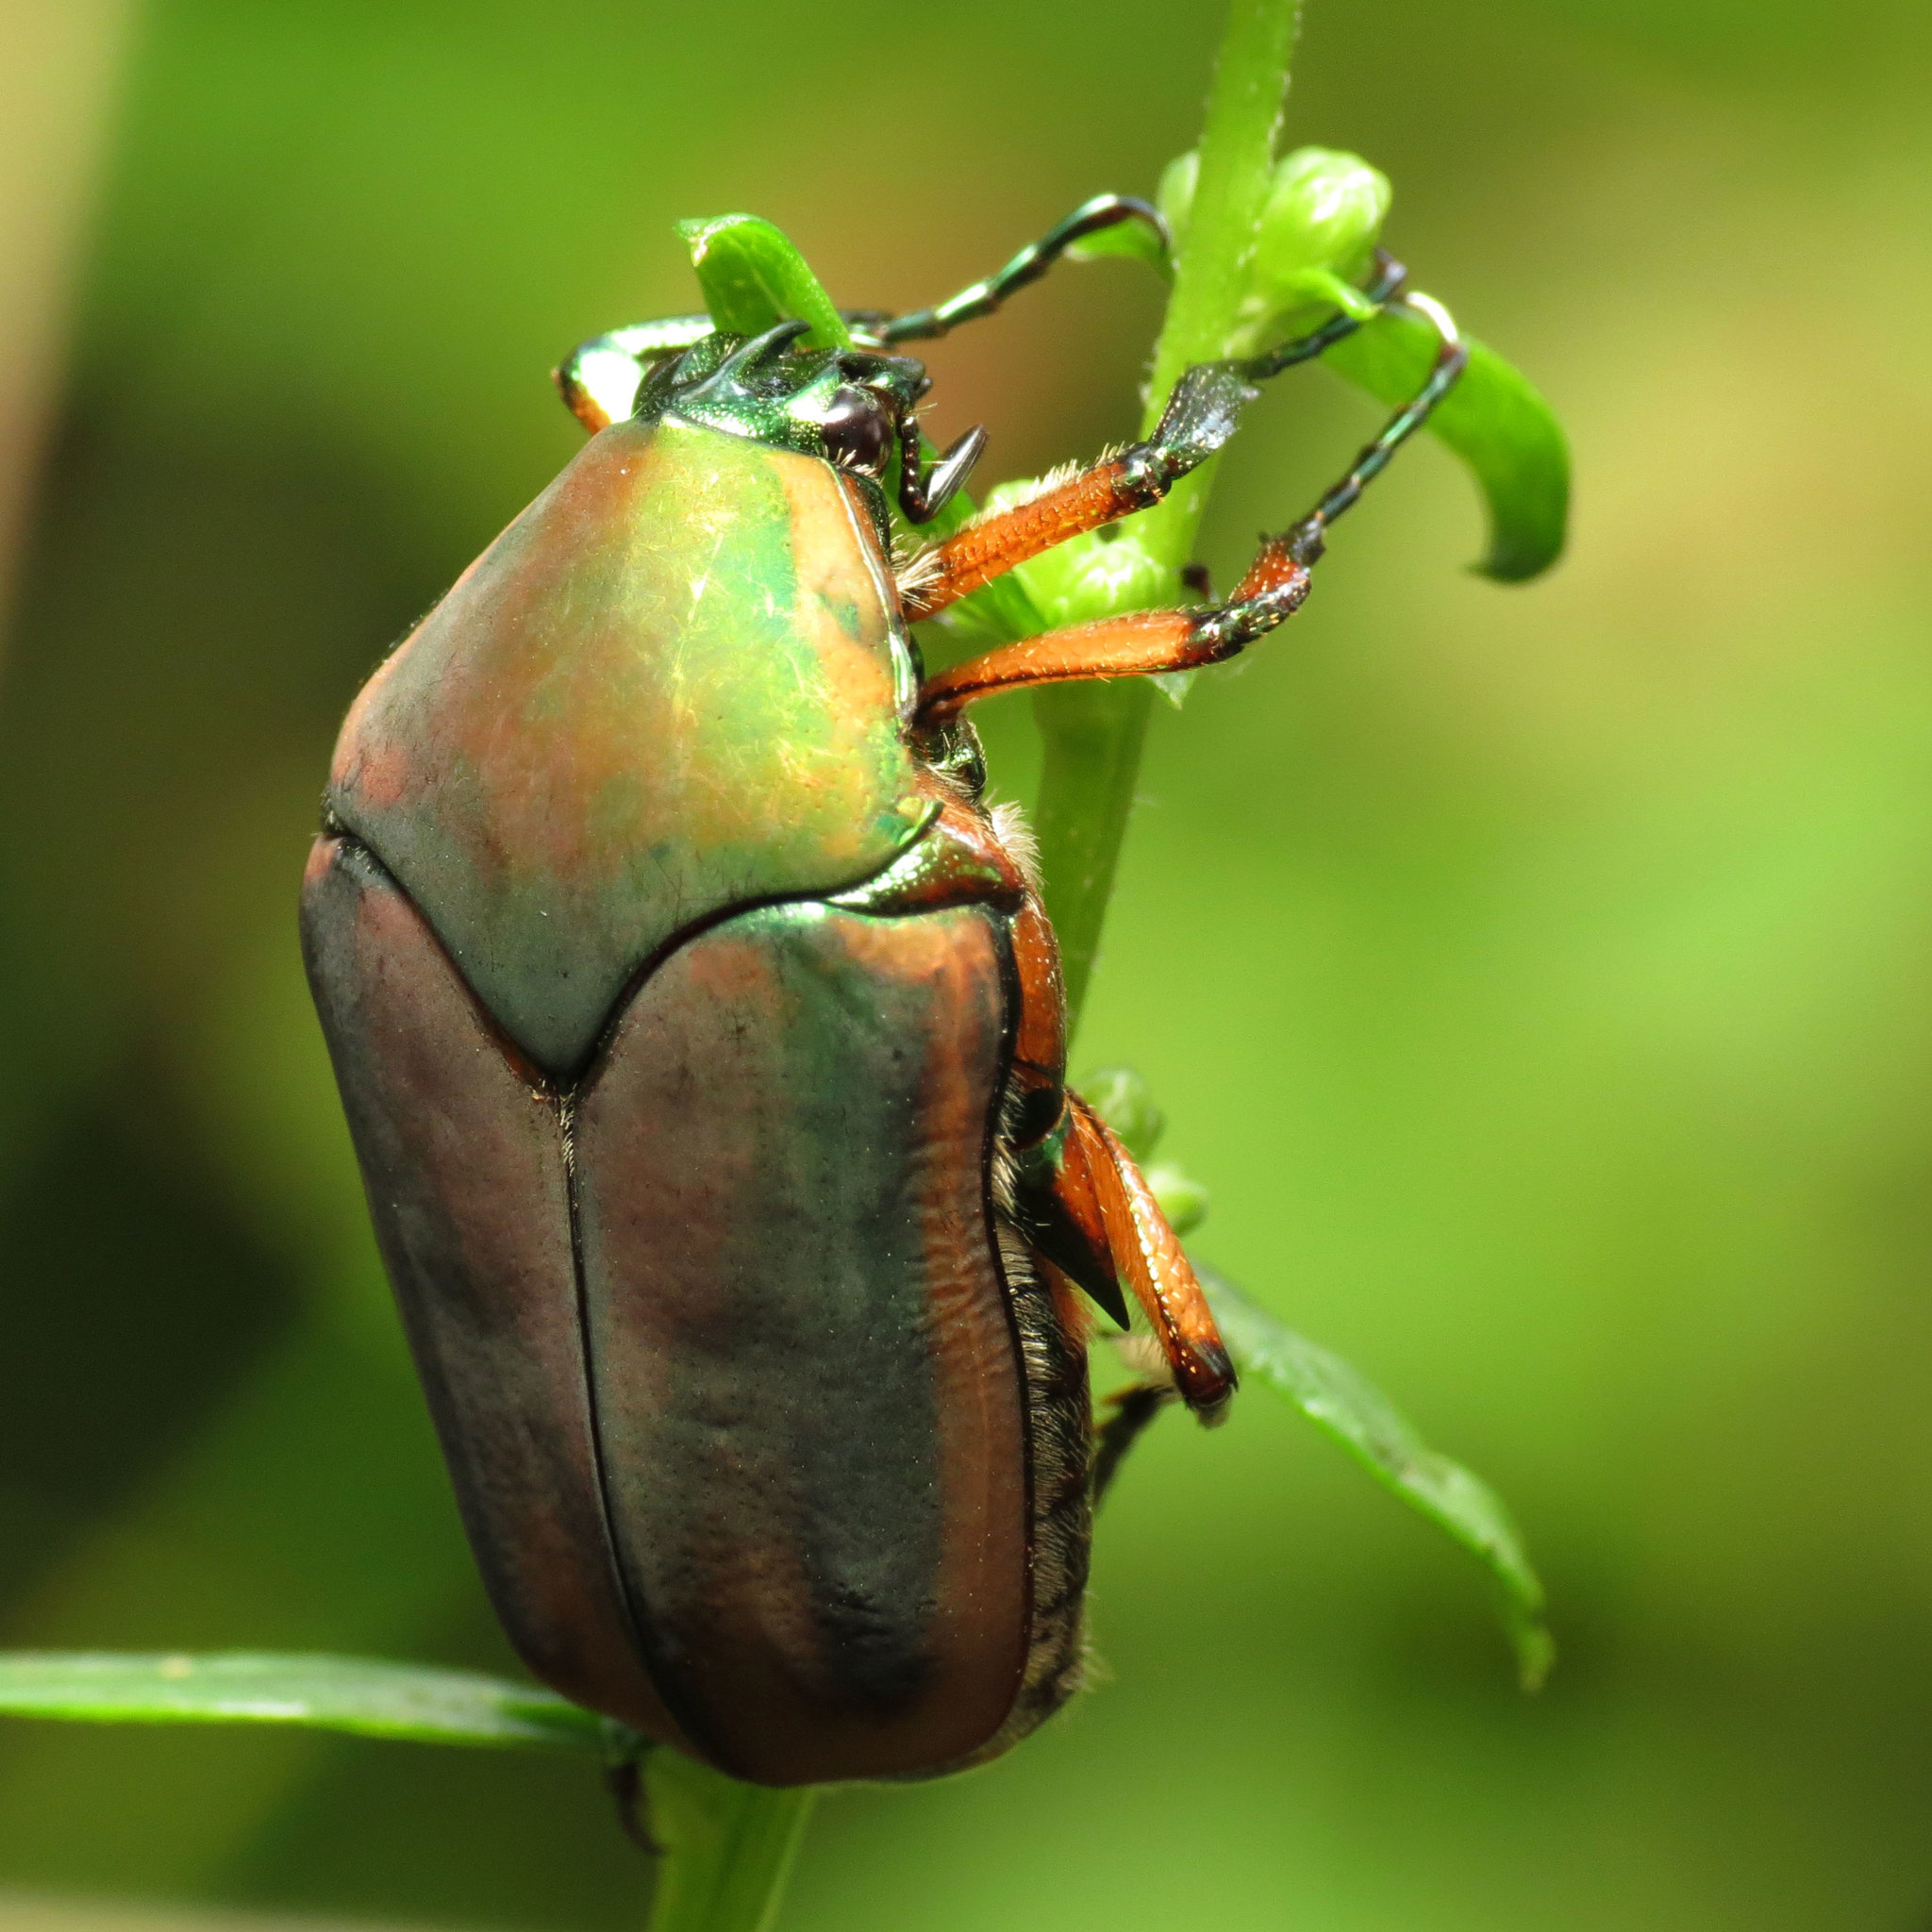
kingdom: Animalia
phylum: Arthropoda
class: Insecta
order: Coleoptera
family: Scarabaeidae
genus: Cotinis
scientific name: Cotinis nitida
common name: Common green june beetle
